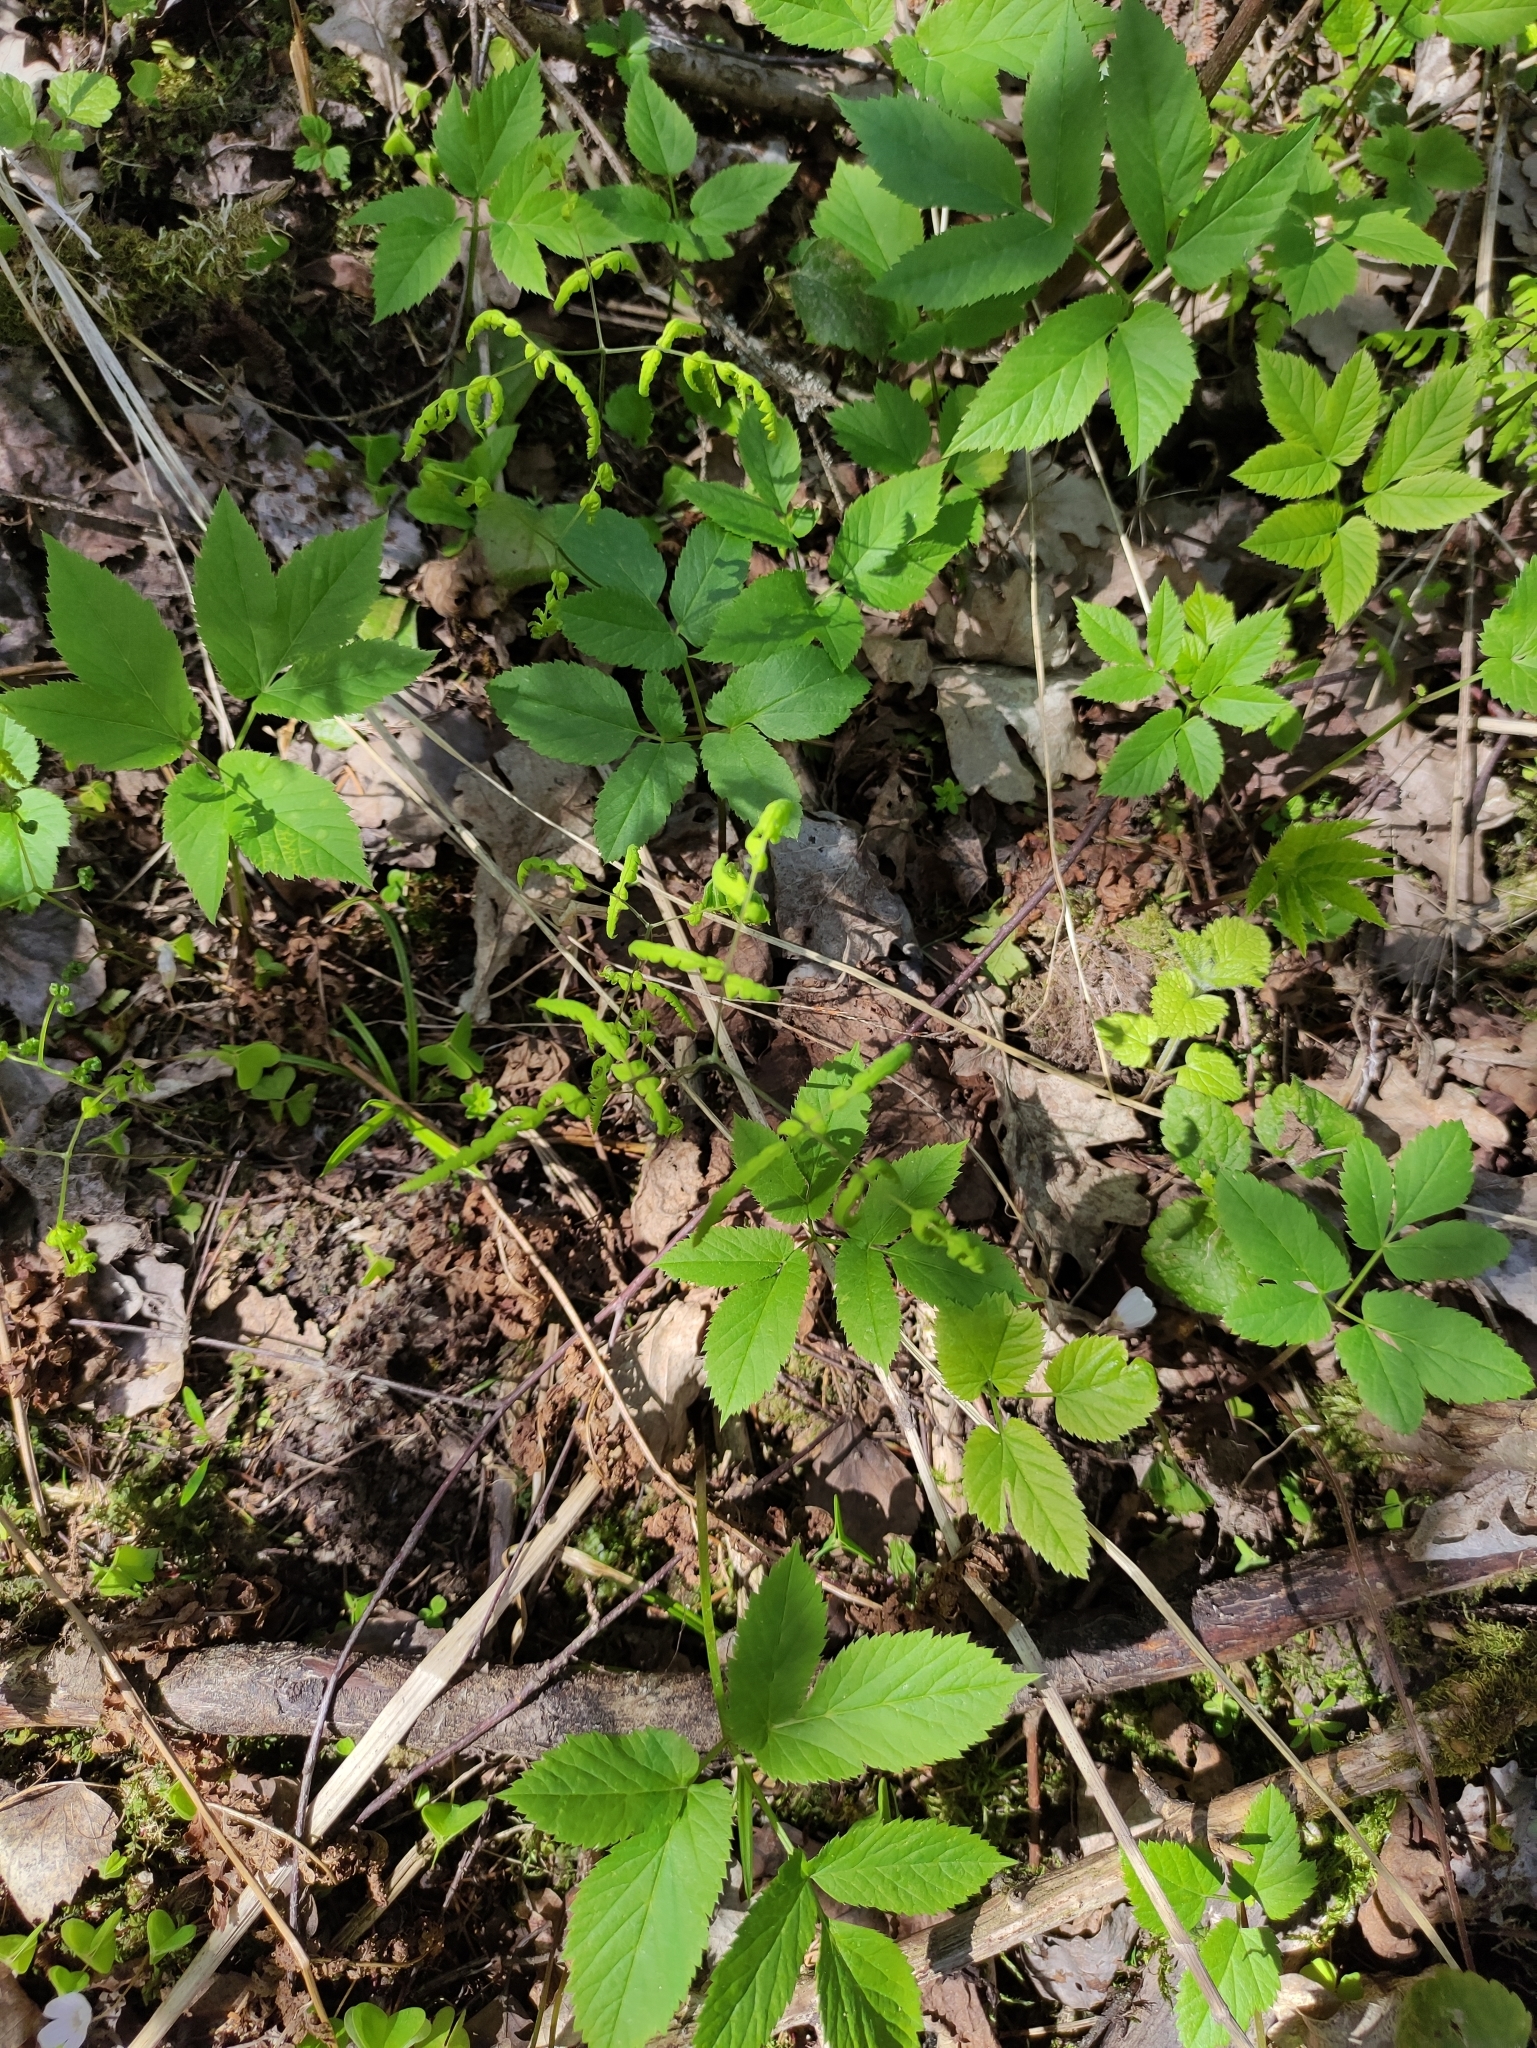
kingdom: Plantae
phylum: Tracheophyta
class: Polypodiopsida
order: Polypodiales
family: Cystopteridaceae
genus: Gymnocarpium
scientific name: Gymnocarpium dryopteris
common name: Oak fern
